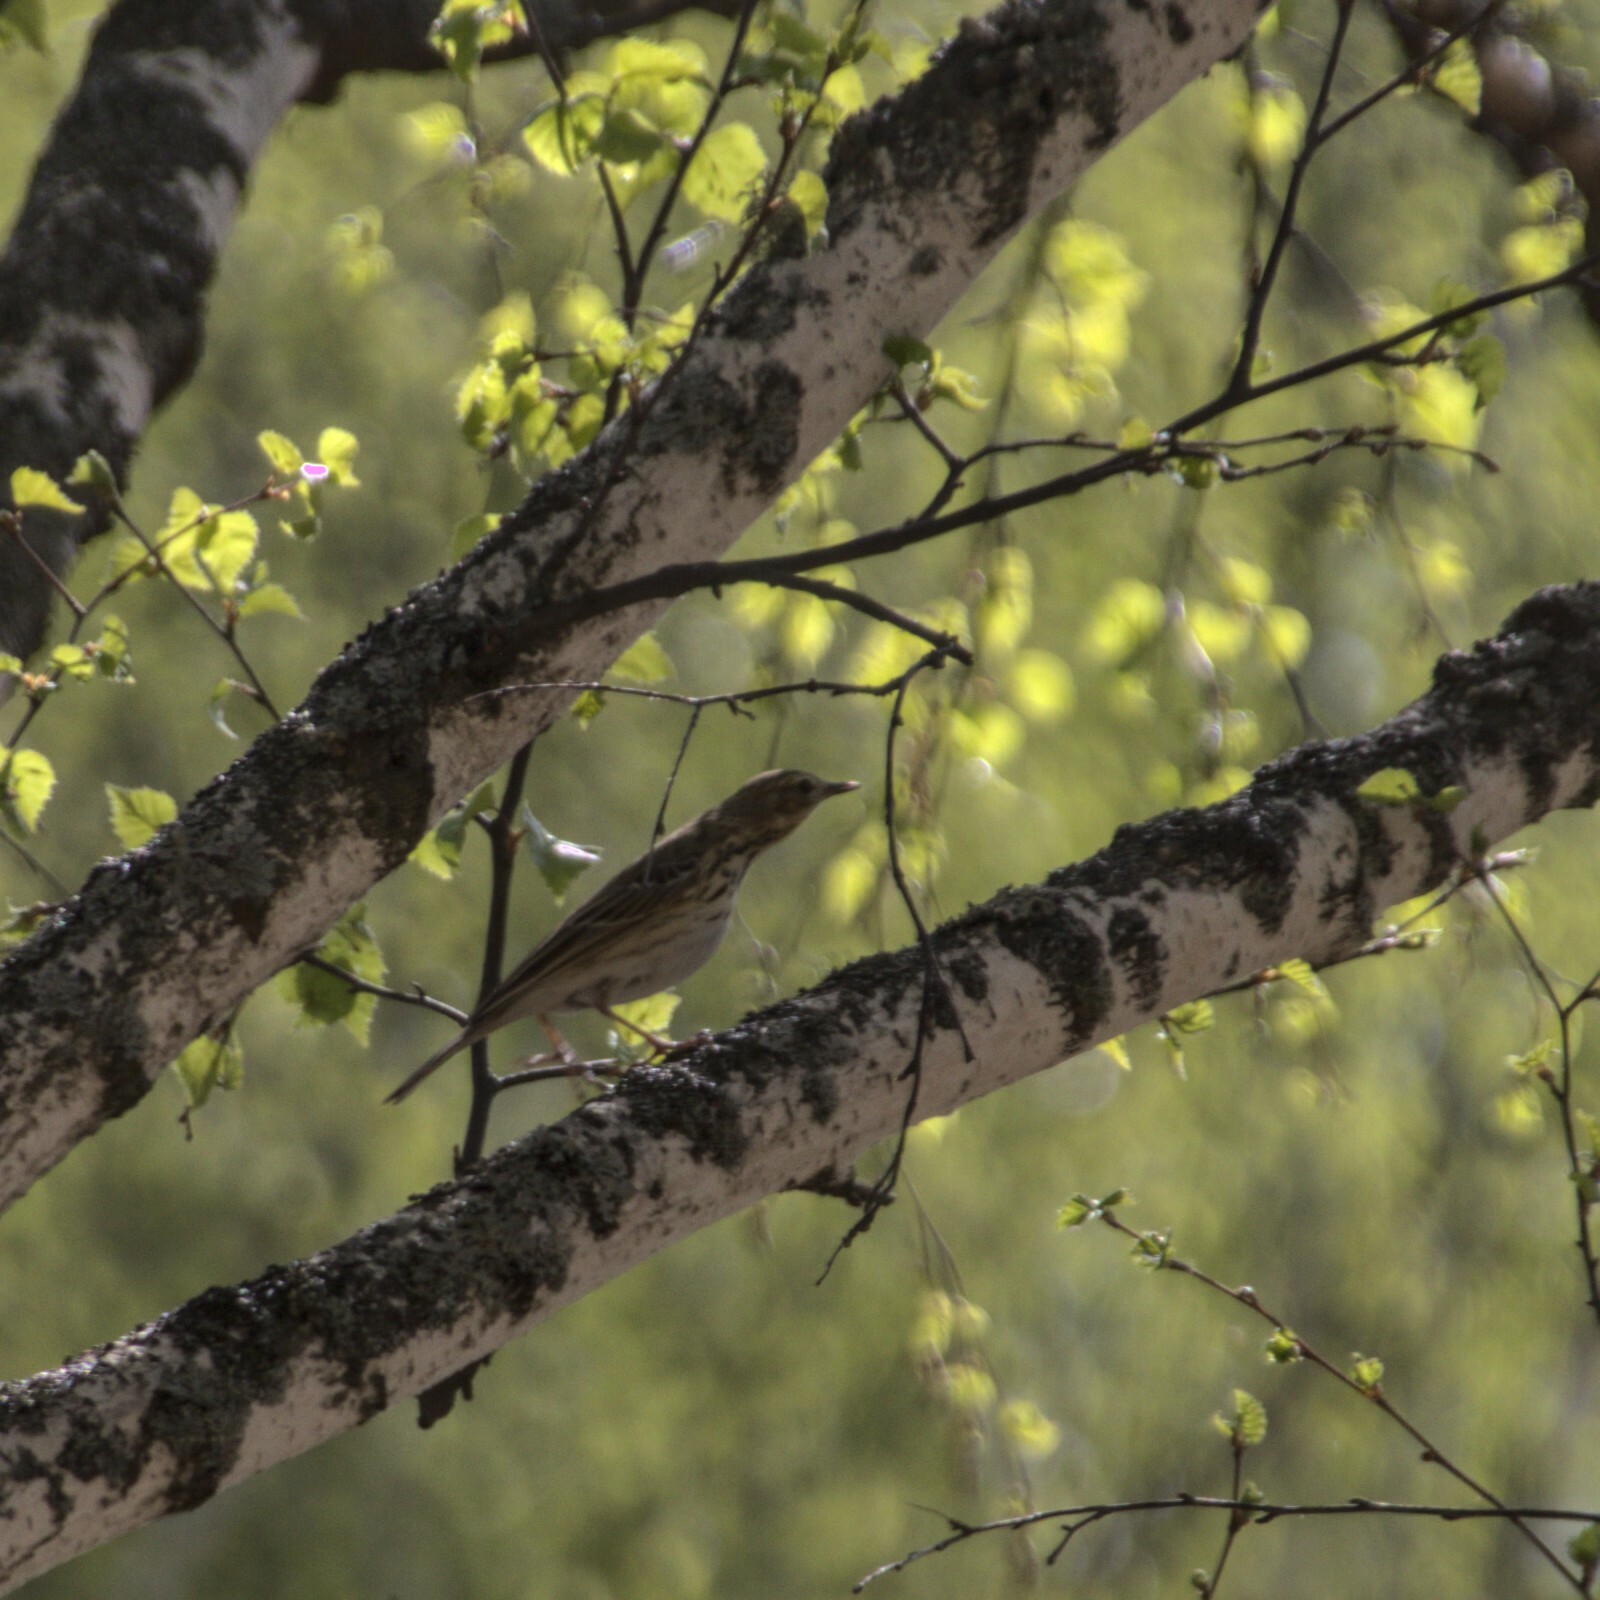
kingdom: Animalia
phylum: Chordata
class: Aves
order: Passeriformes
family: Motacillidae
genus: Anthus
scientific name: Anthus trivialis
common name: Tree pipit
